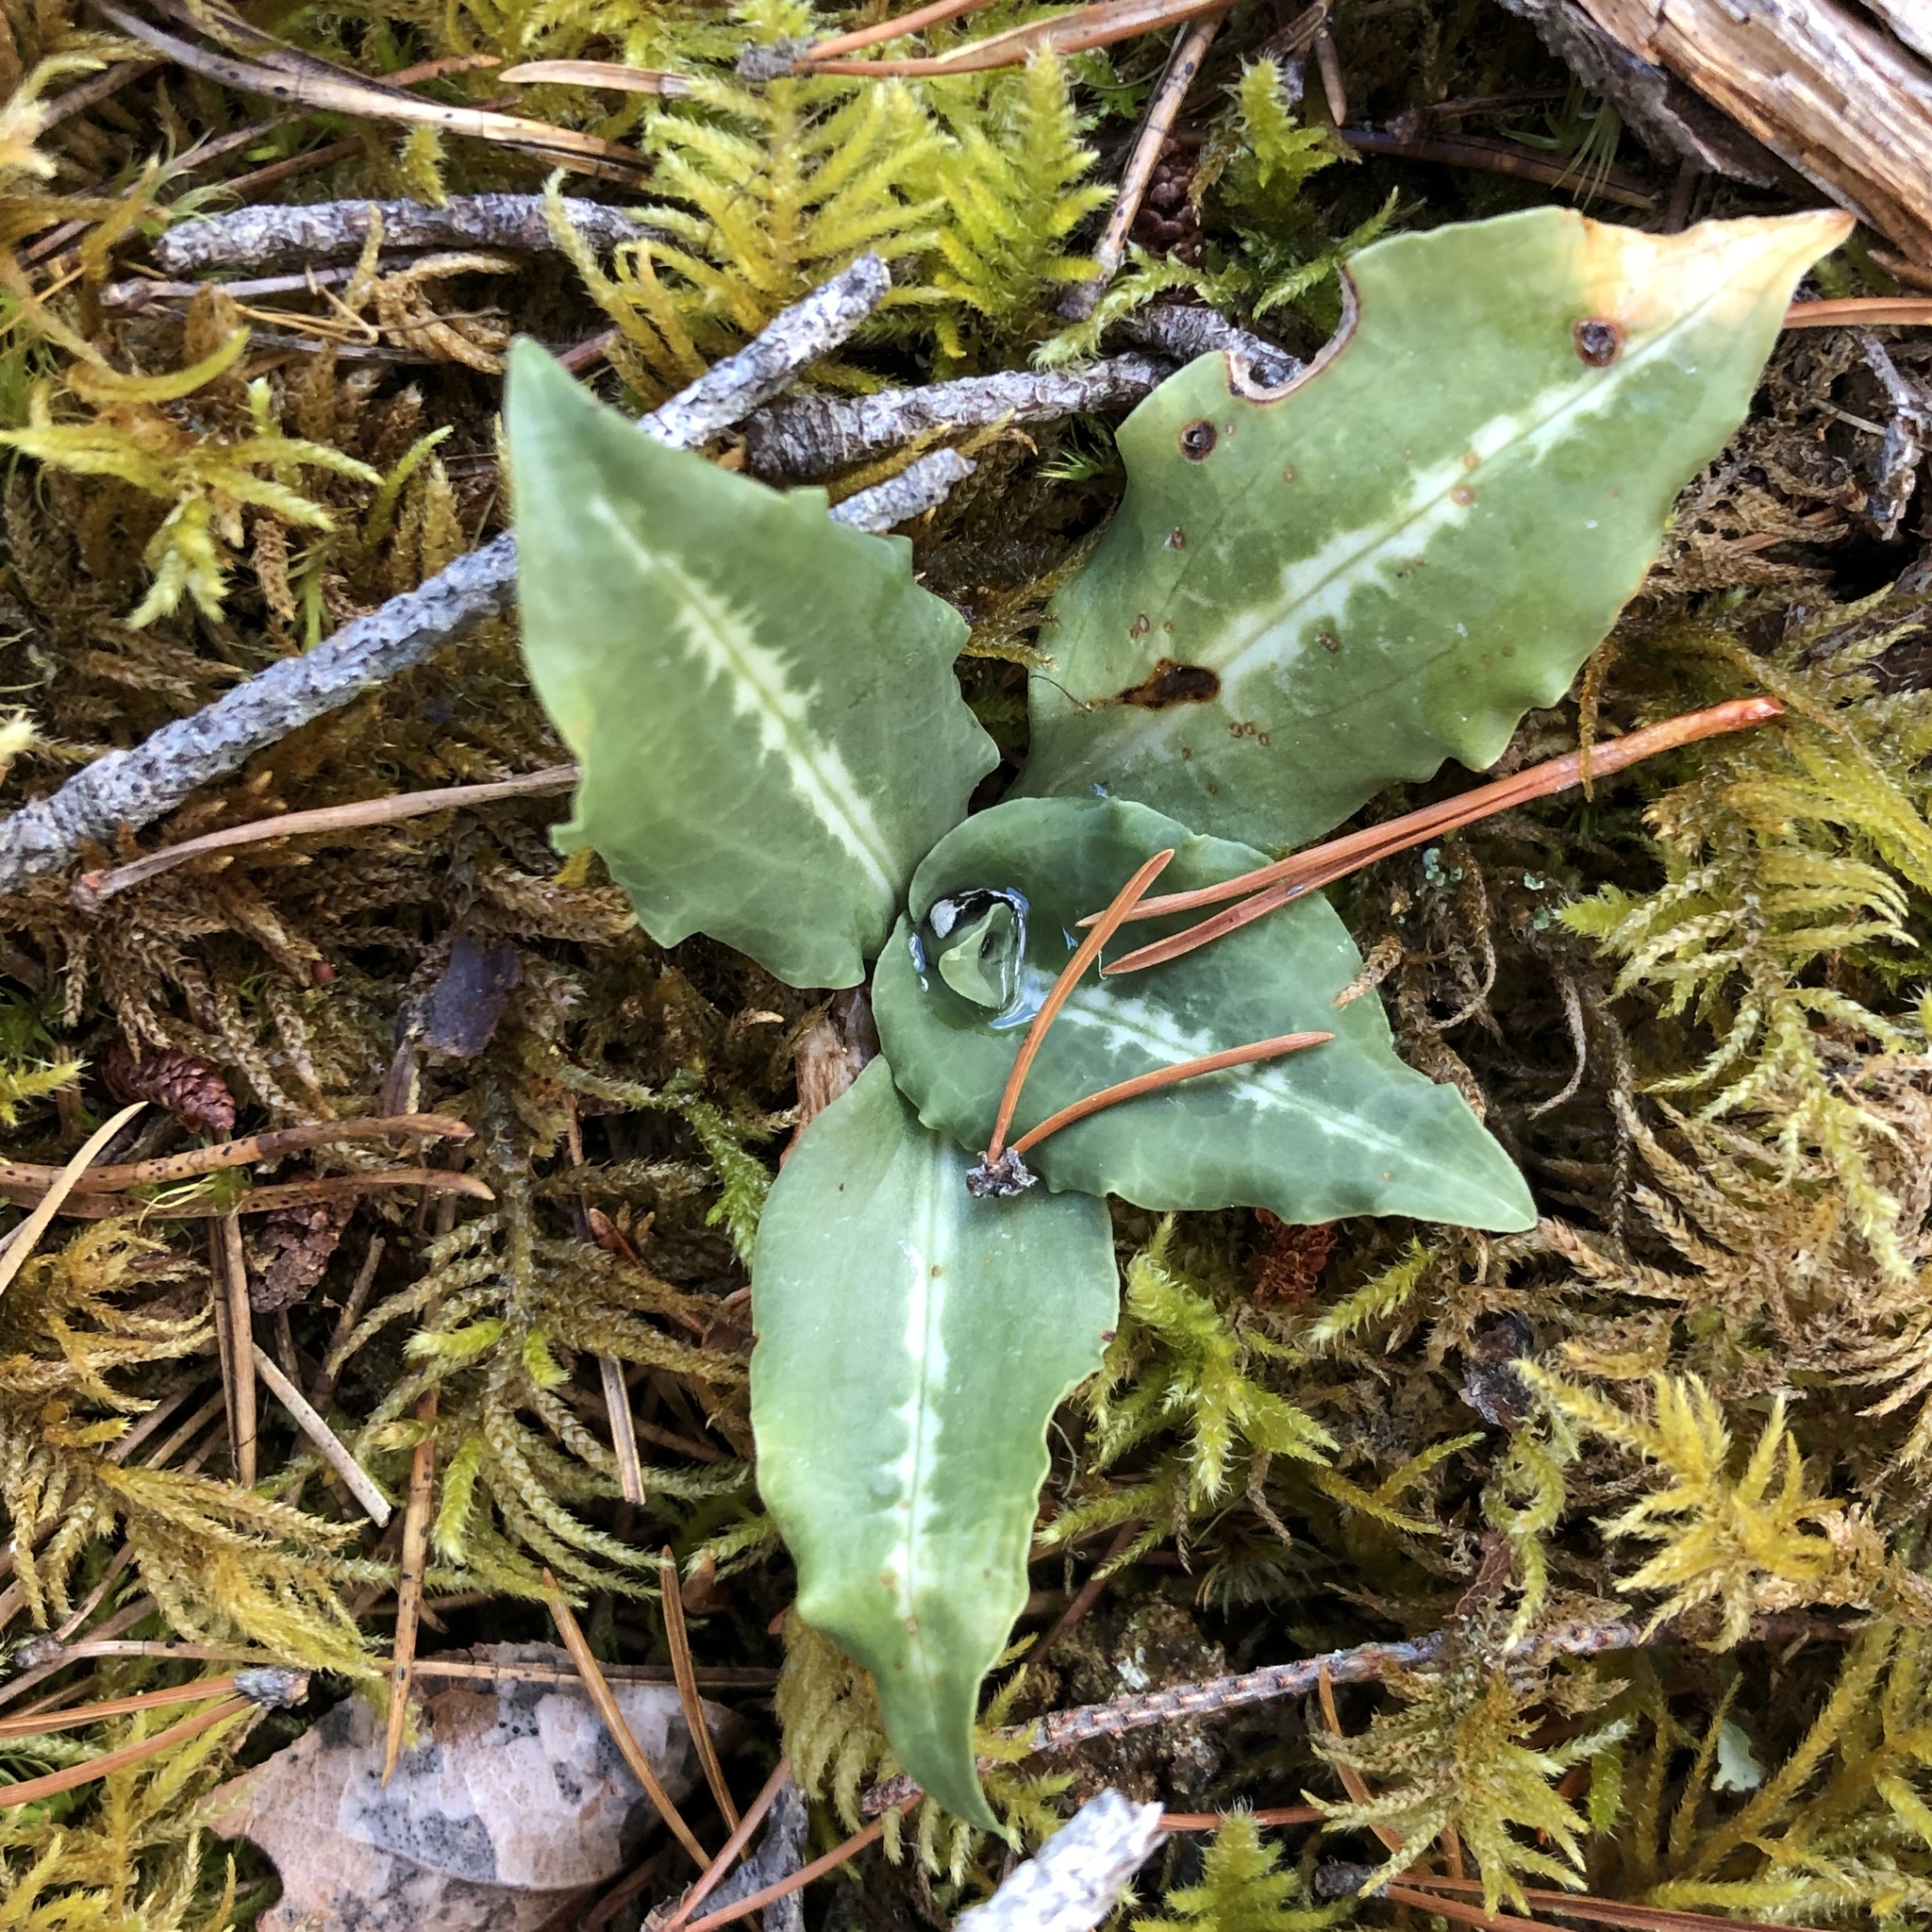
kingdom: Plantae
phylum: Tracheophyta
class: Liliopsida
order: Asparagales
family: Orchidaceae
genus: Goodyera
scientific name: Goodyera oblongifolia
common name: Giant rattlesnake-plantain
